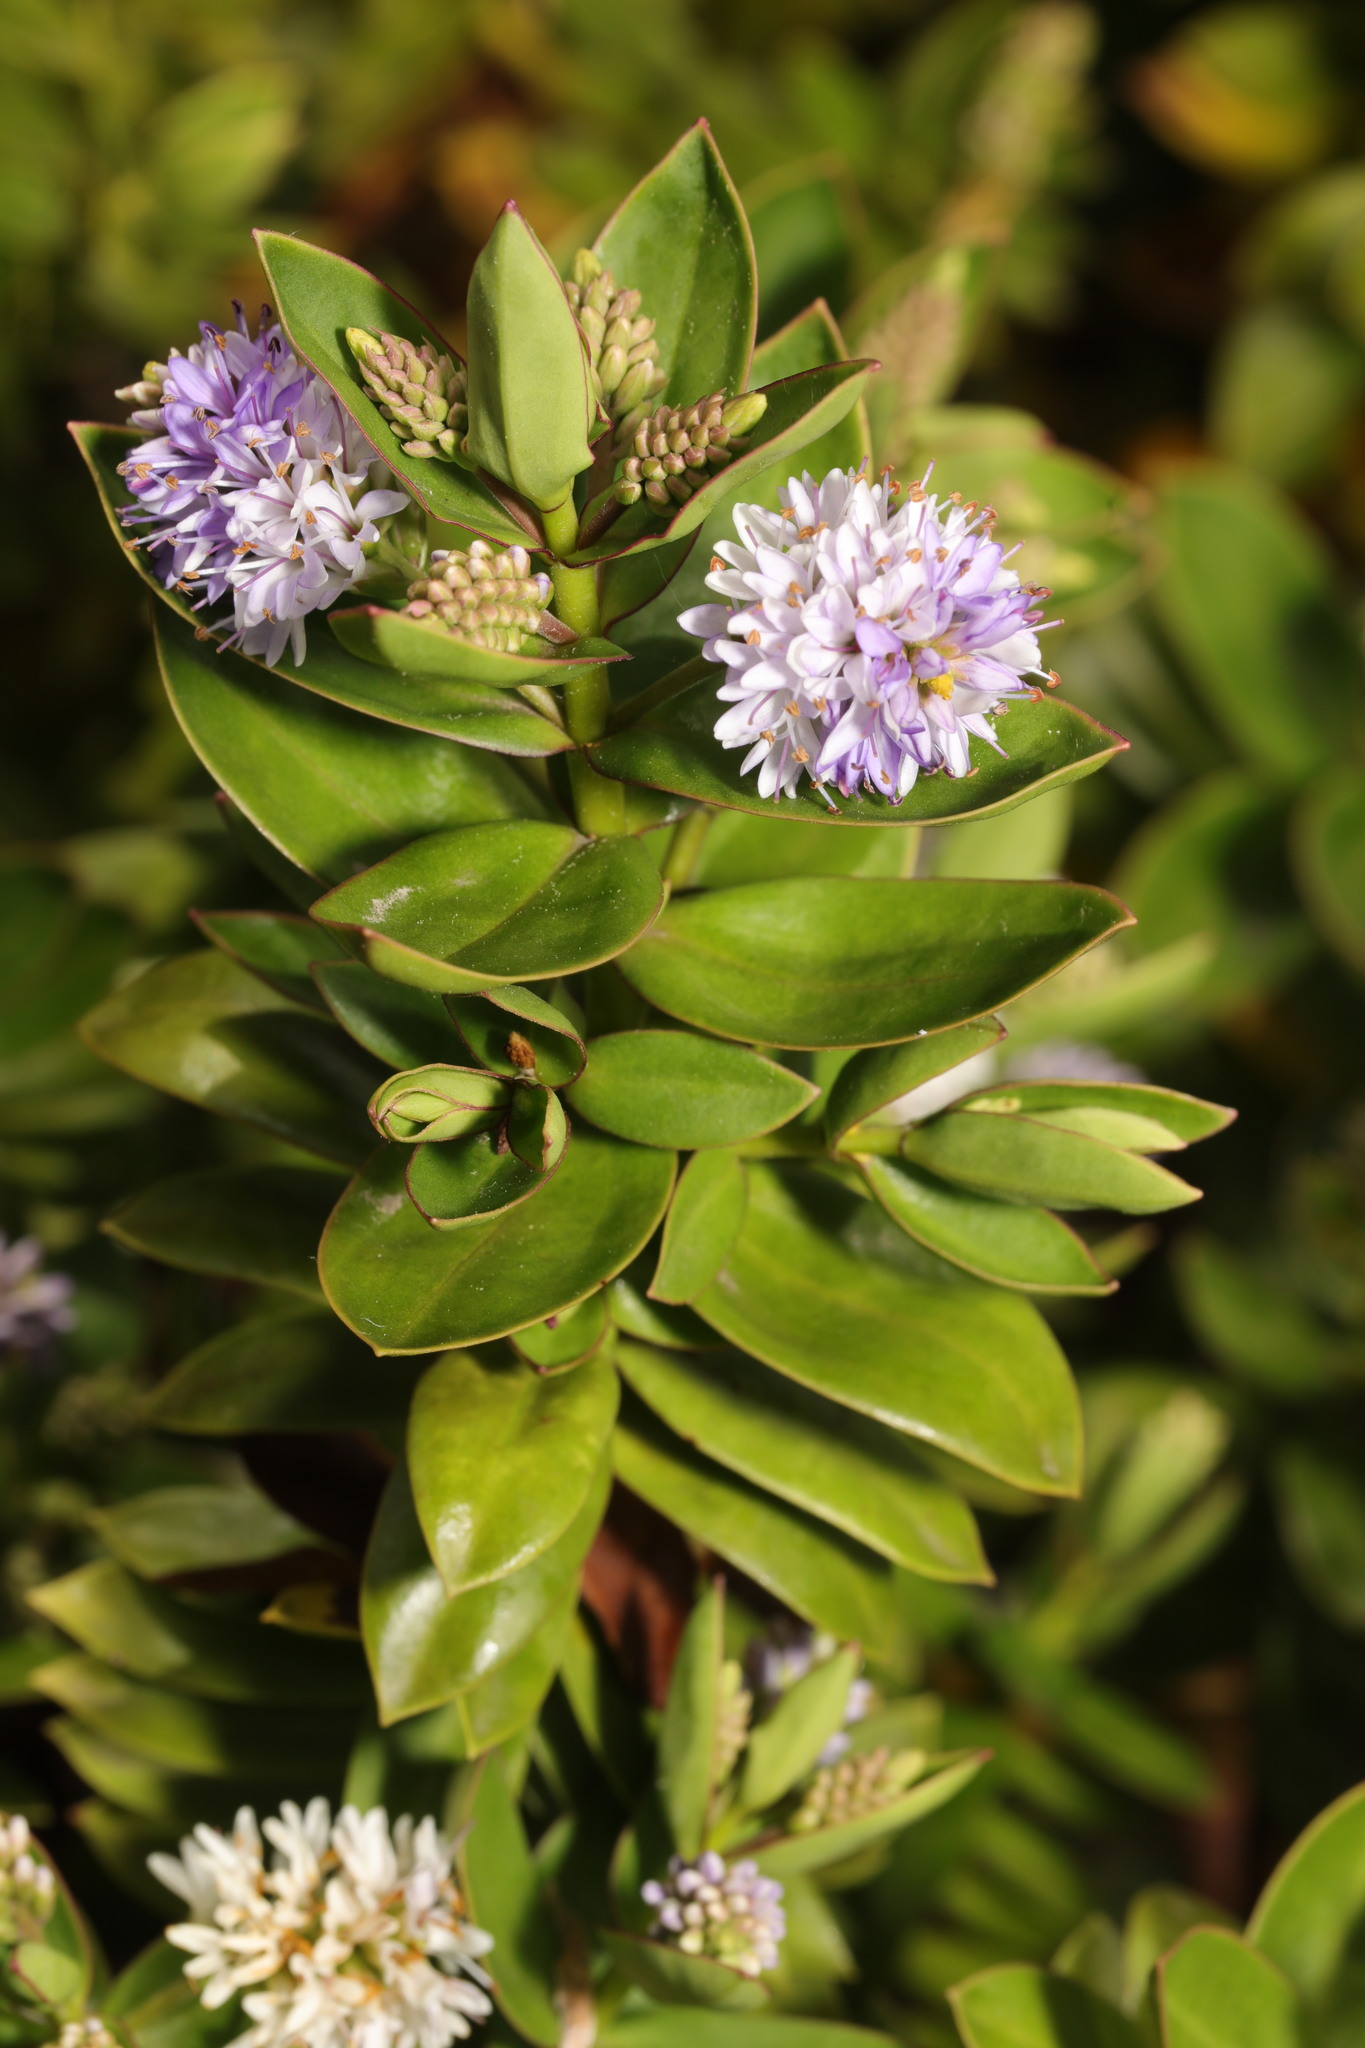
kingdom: Plantae
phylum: Tracheophyta
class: Magnoliopsida
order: Lamiales
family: Plantaginaceae
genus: Veronica
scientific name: Veronica franciscana
